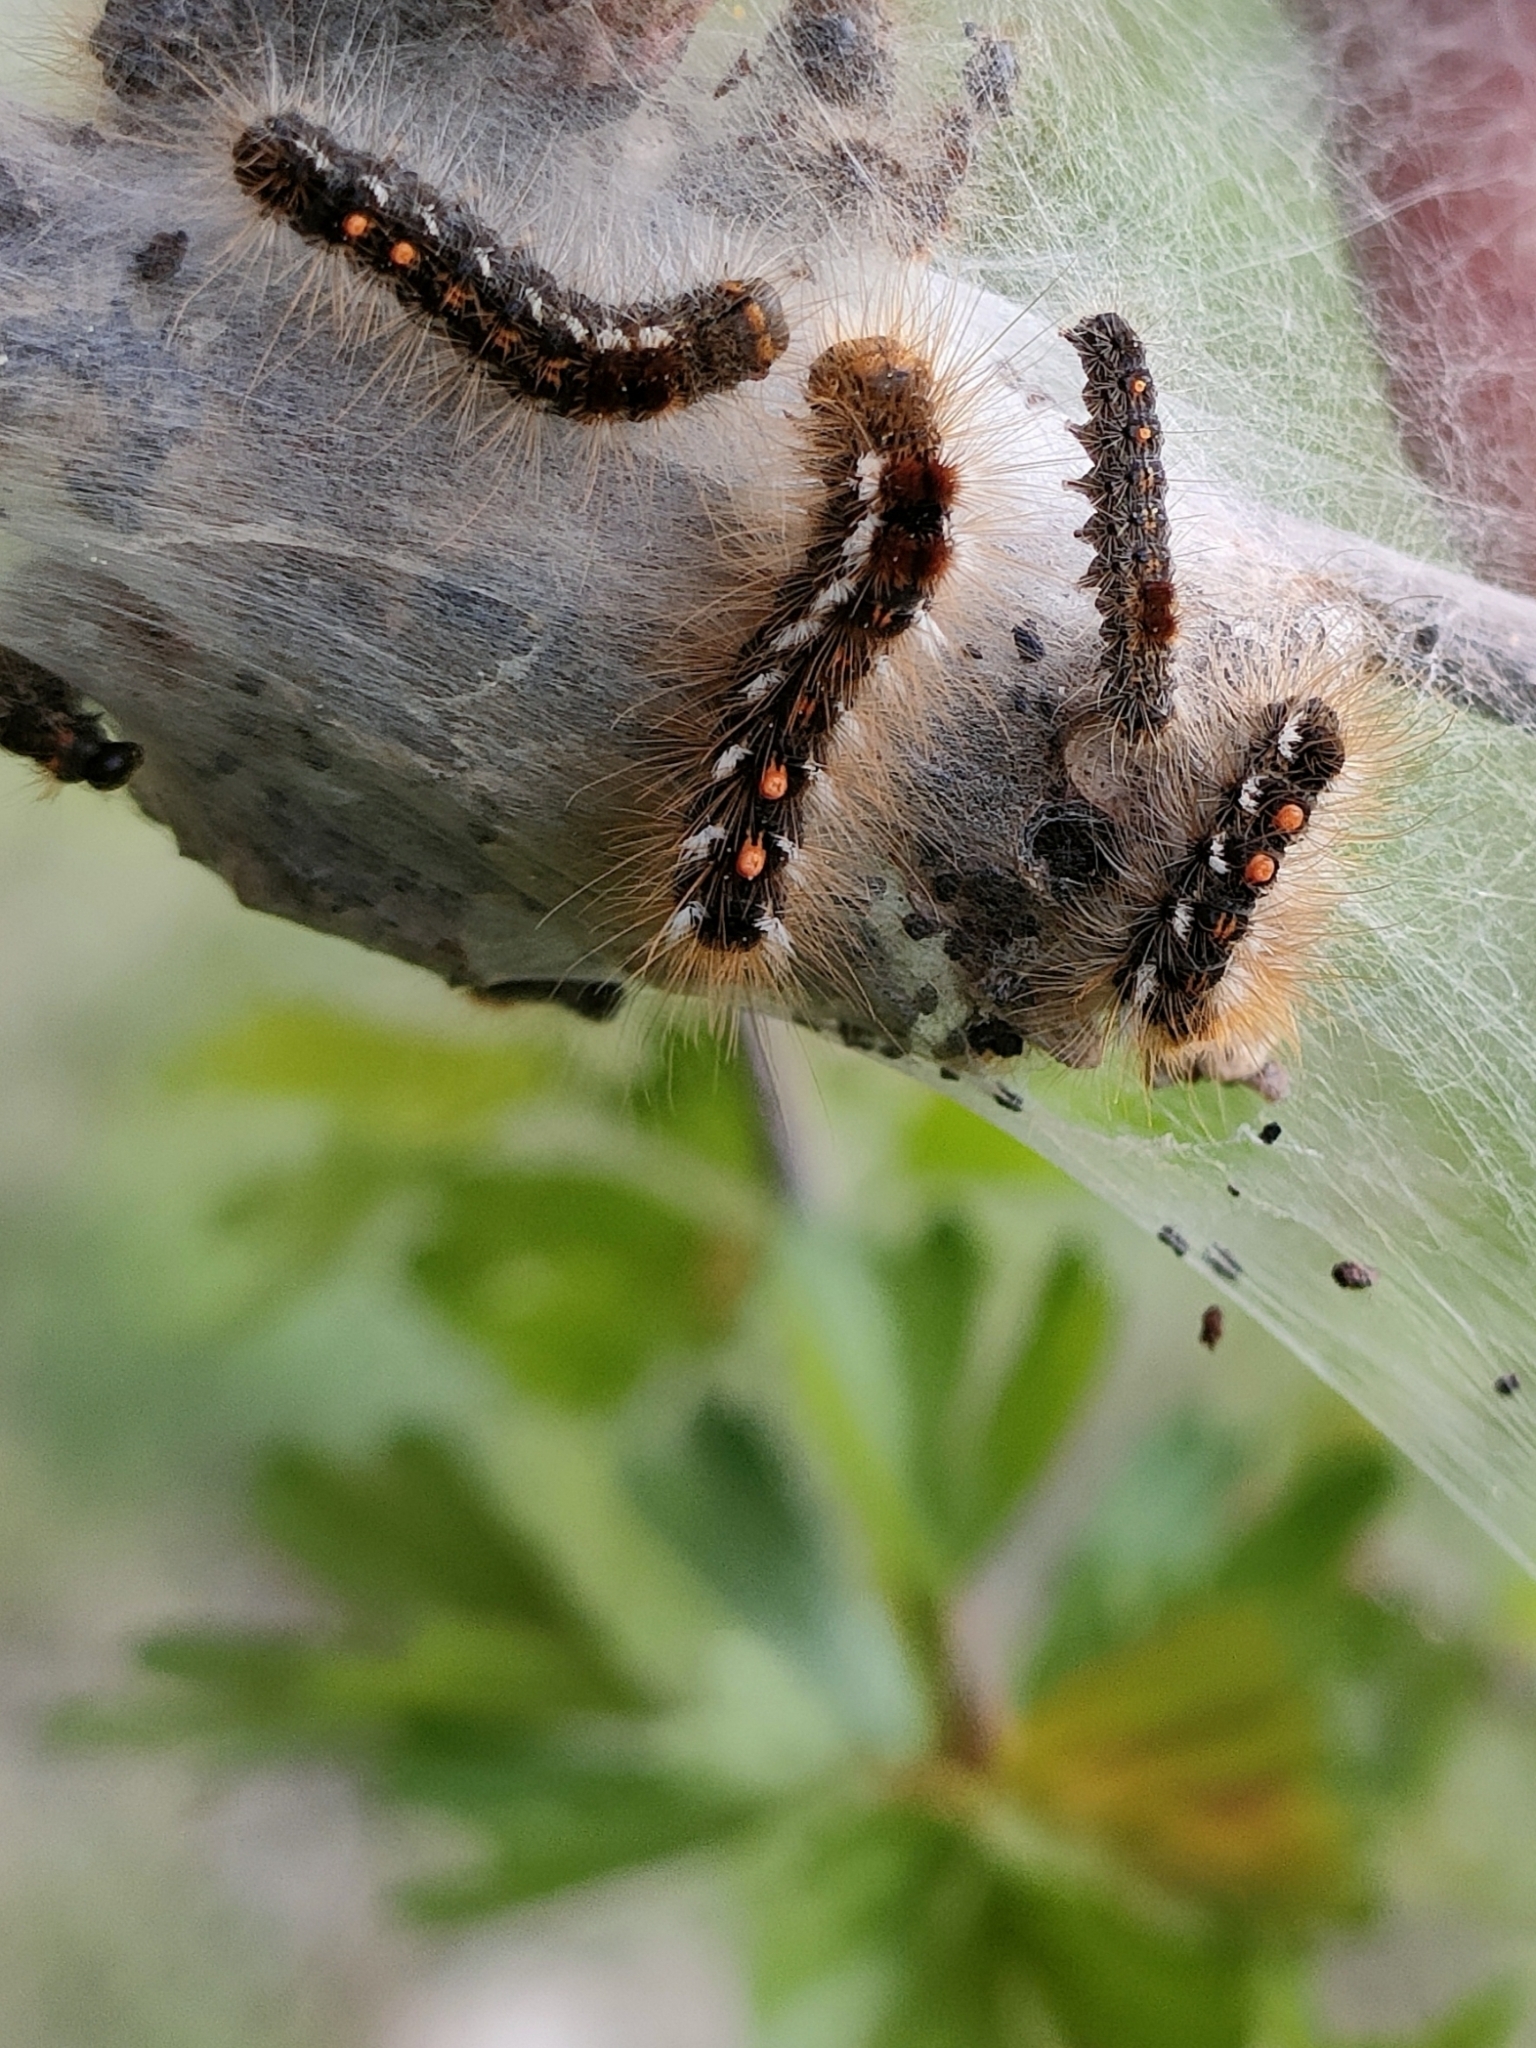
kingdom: Animalia
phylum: Arthropoda
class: Insecta
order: Lepidoptera
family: Erebidae
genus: Euproctis
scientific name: Euproctis chrysorrhoea
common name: Brown-tail
